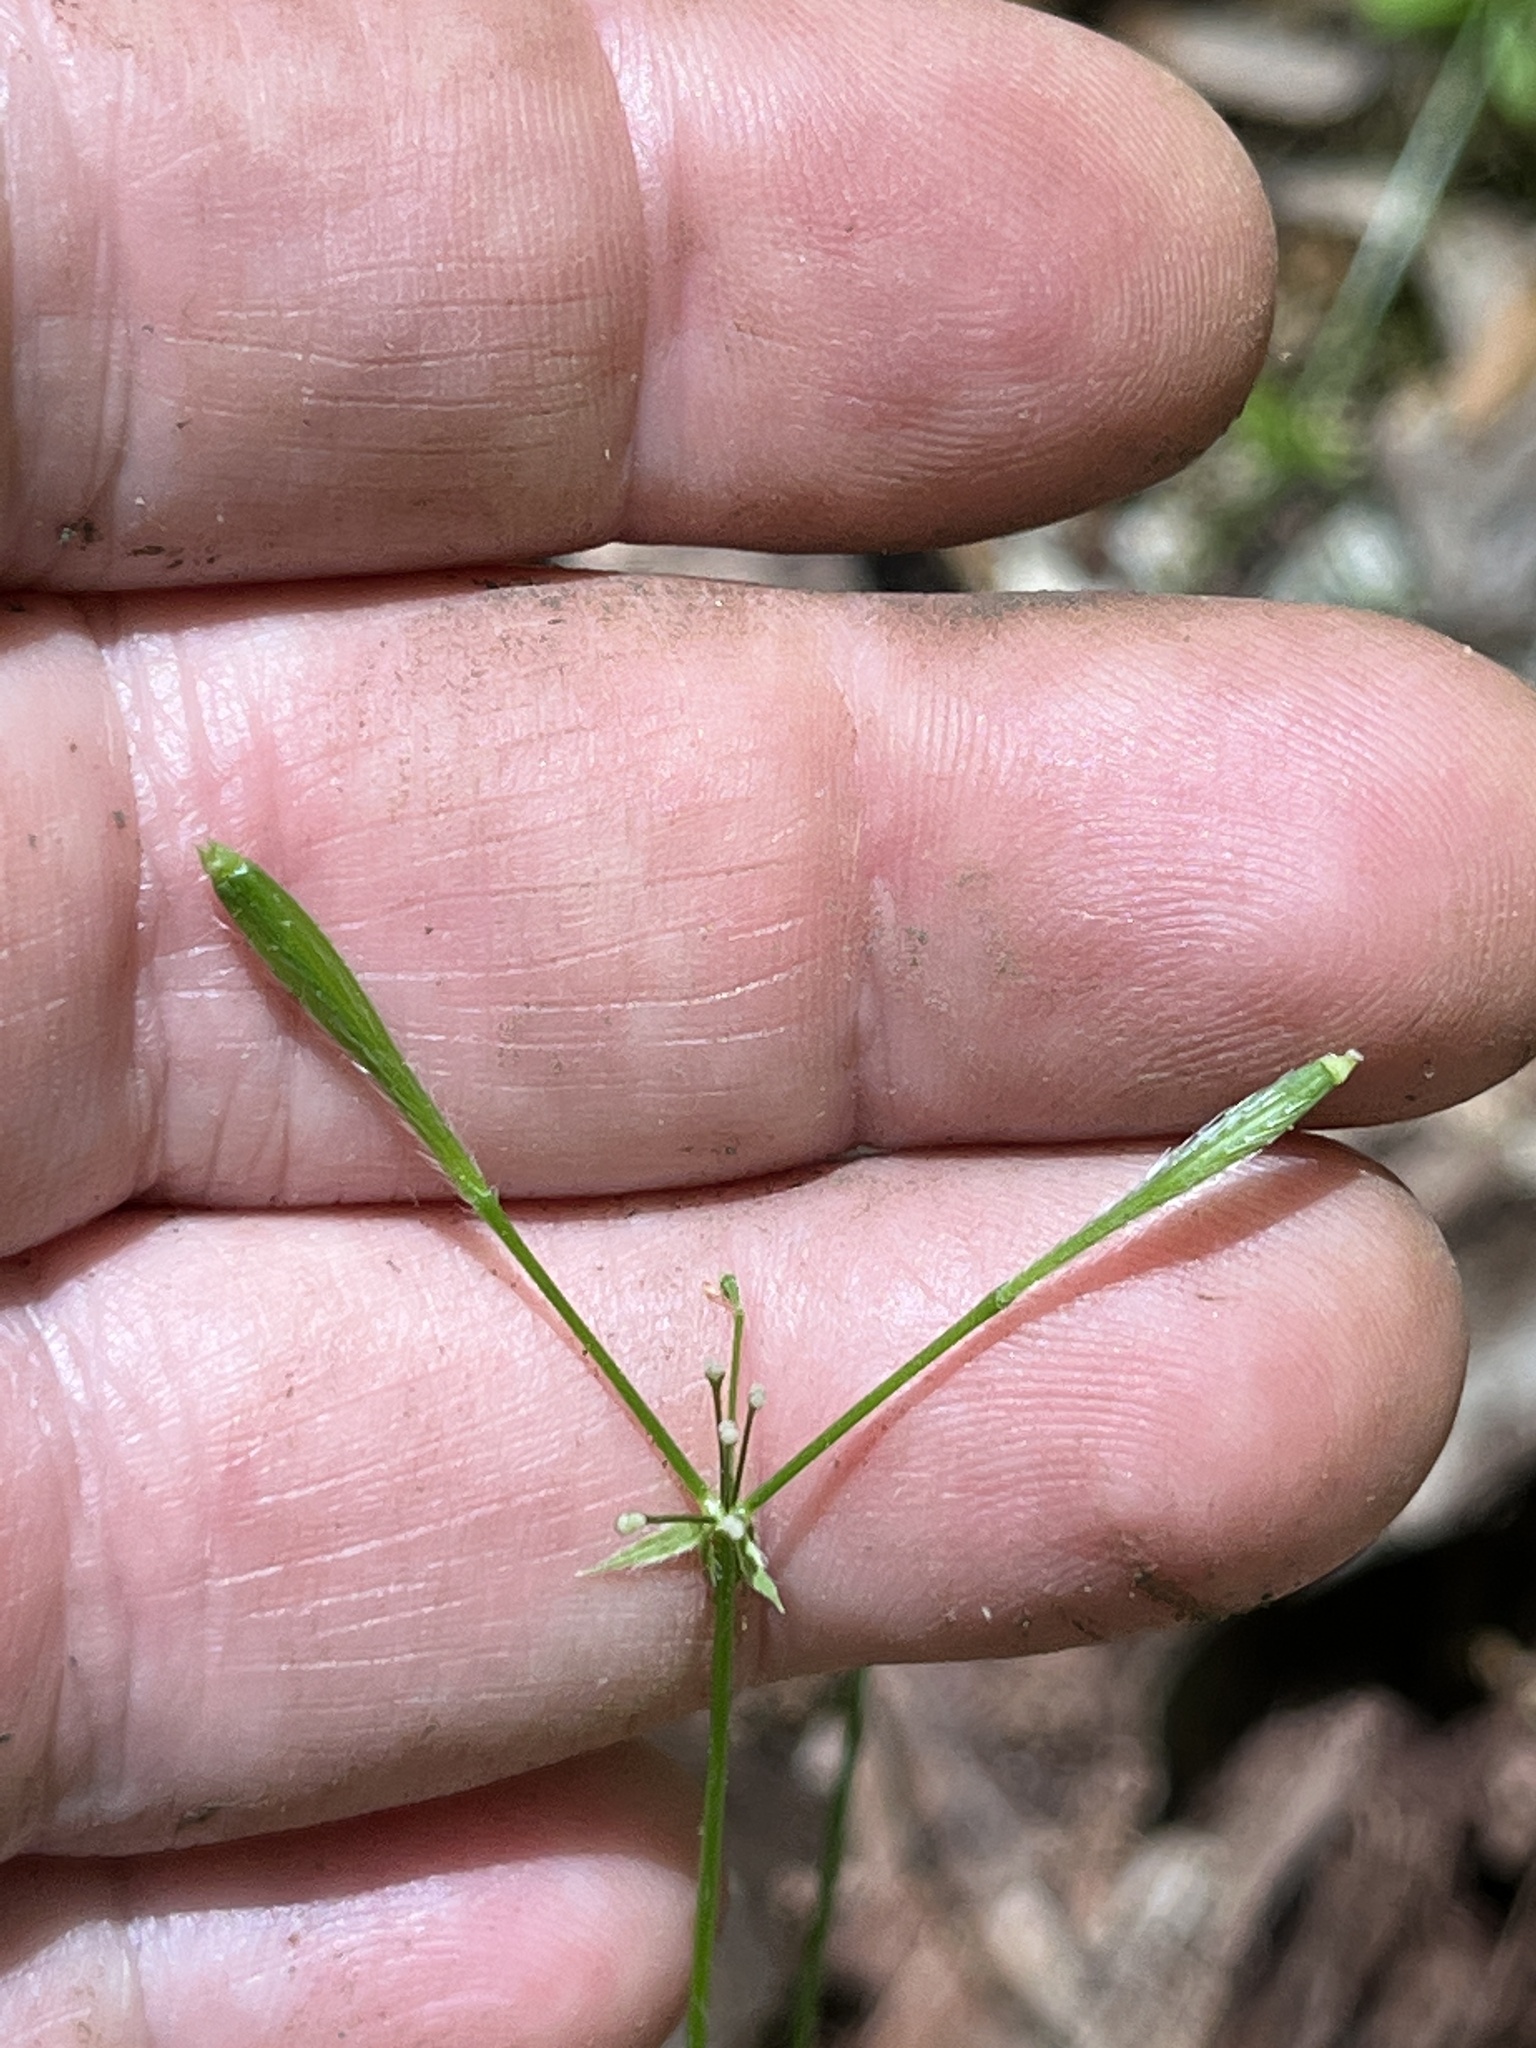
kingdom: Plantae
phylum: Tracheophyta
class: Magnoliopsida
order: Apiales
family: Apiaceae
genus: Osmorhiza
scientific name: Osmorhiza claytonii
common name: Hairy sweet cicely
